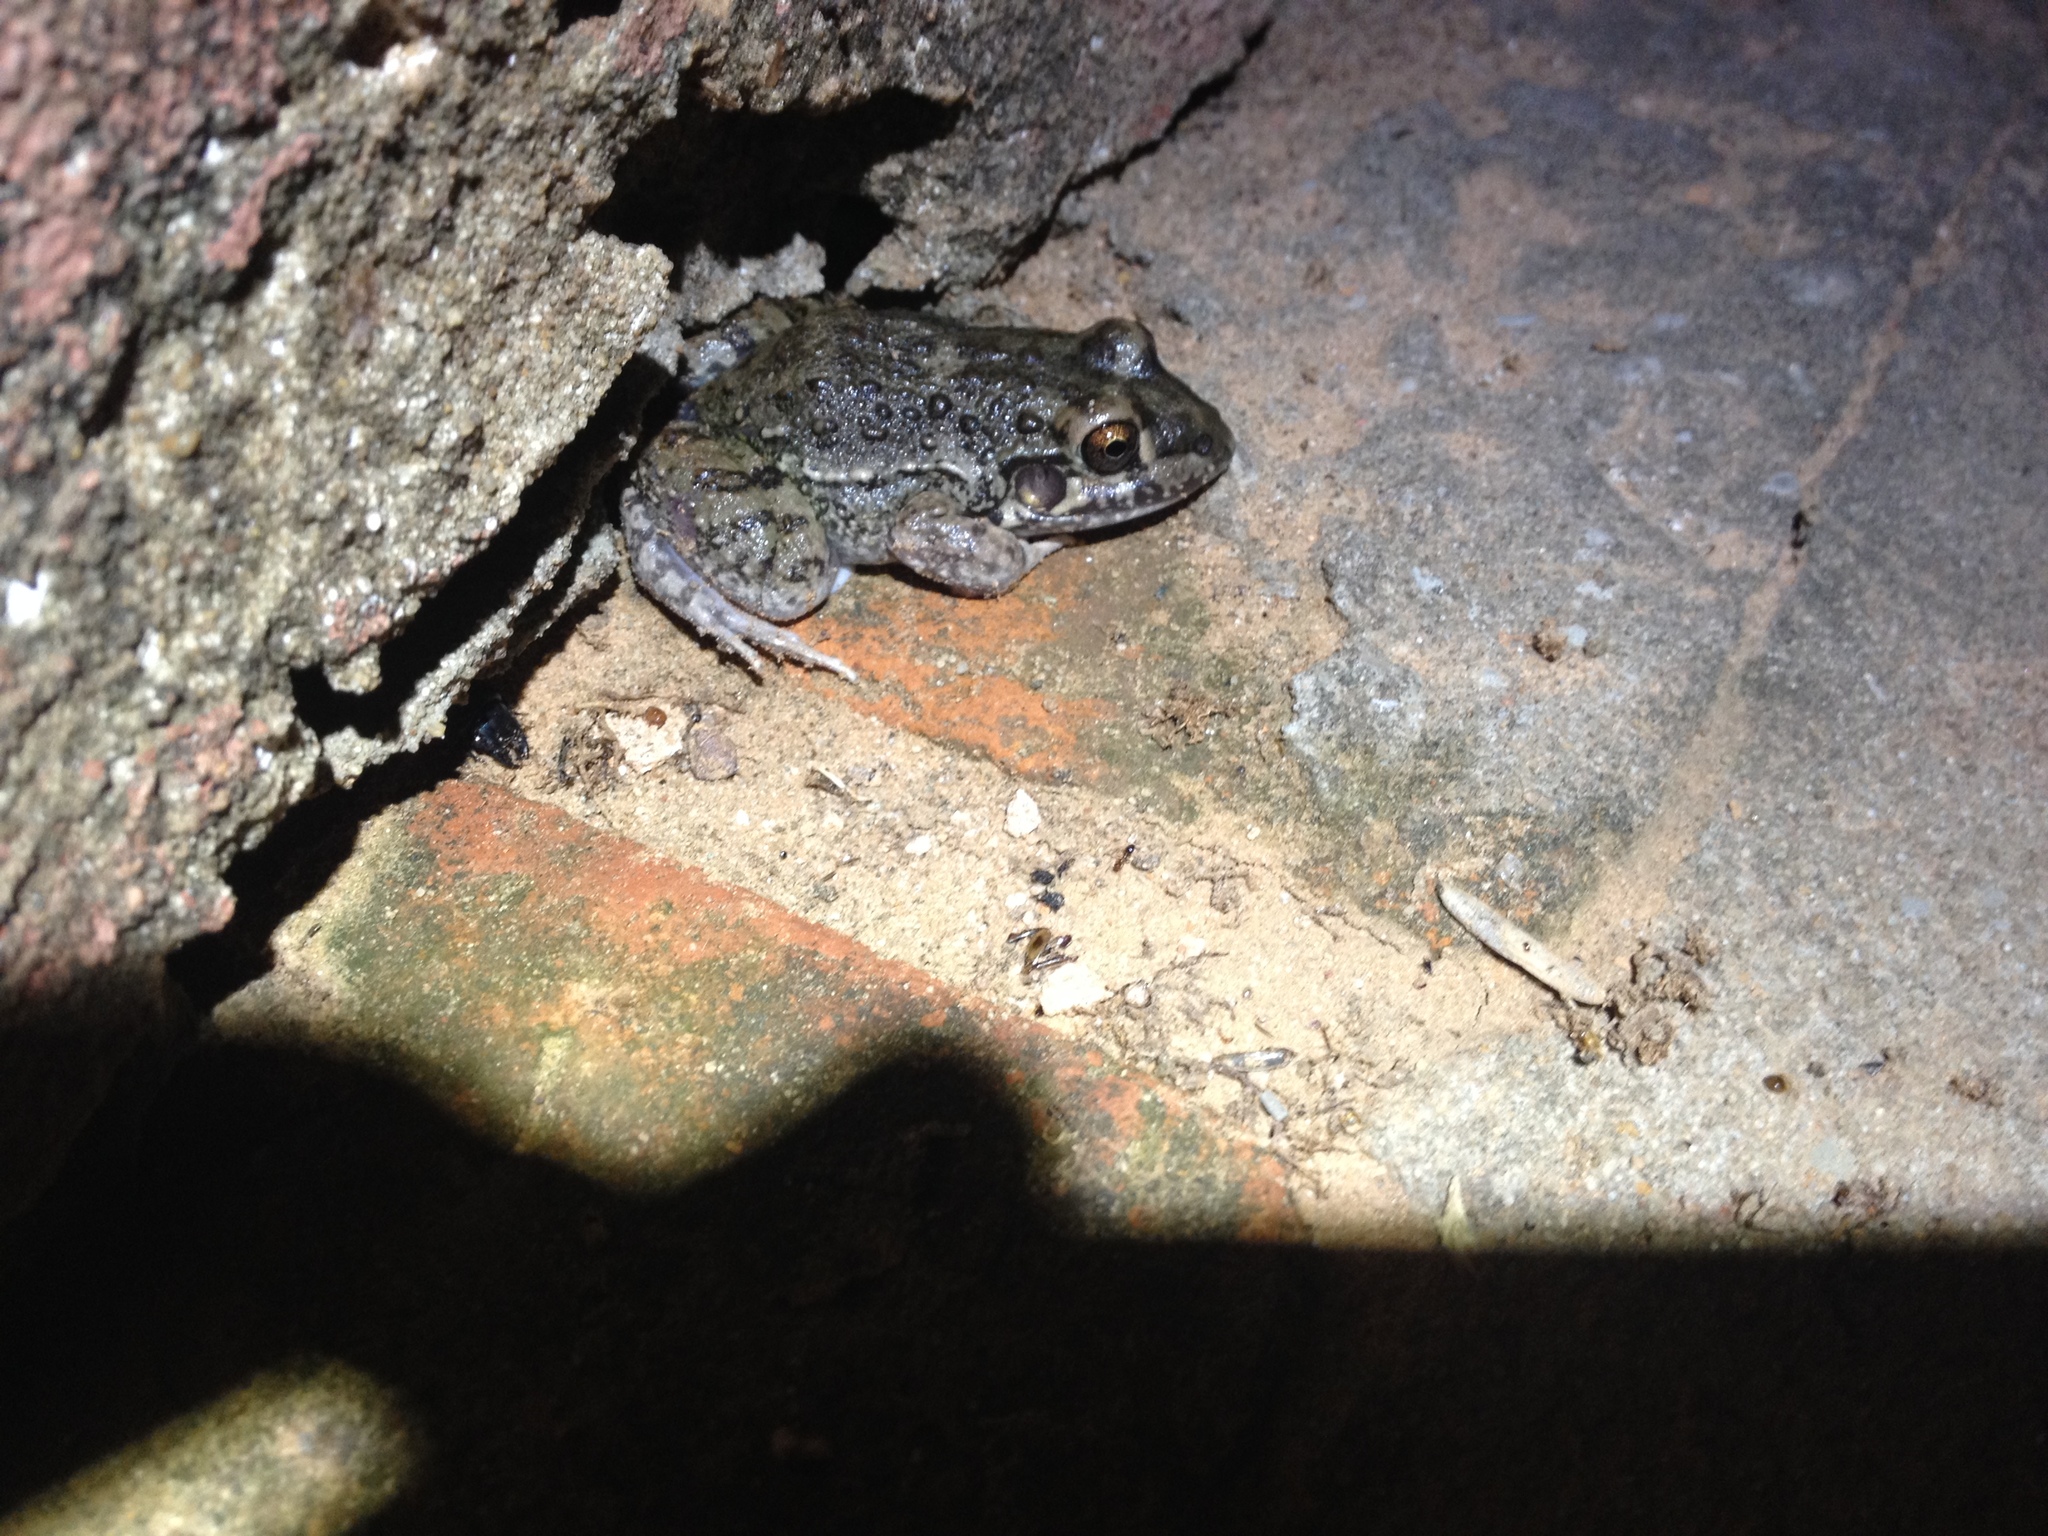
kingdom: Animalia
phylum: Chordata
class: Amphibia
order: Anura
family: Leptodactylidae
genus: Leptodactylus
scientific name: Leptodactylus bufonius
